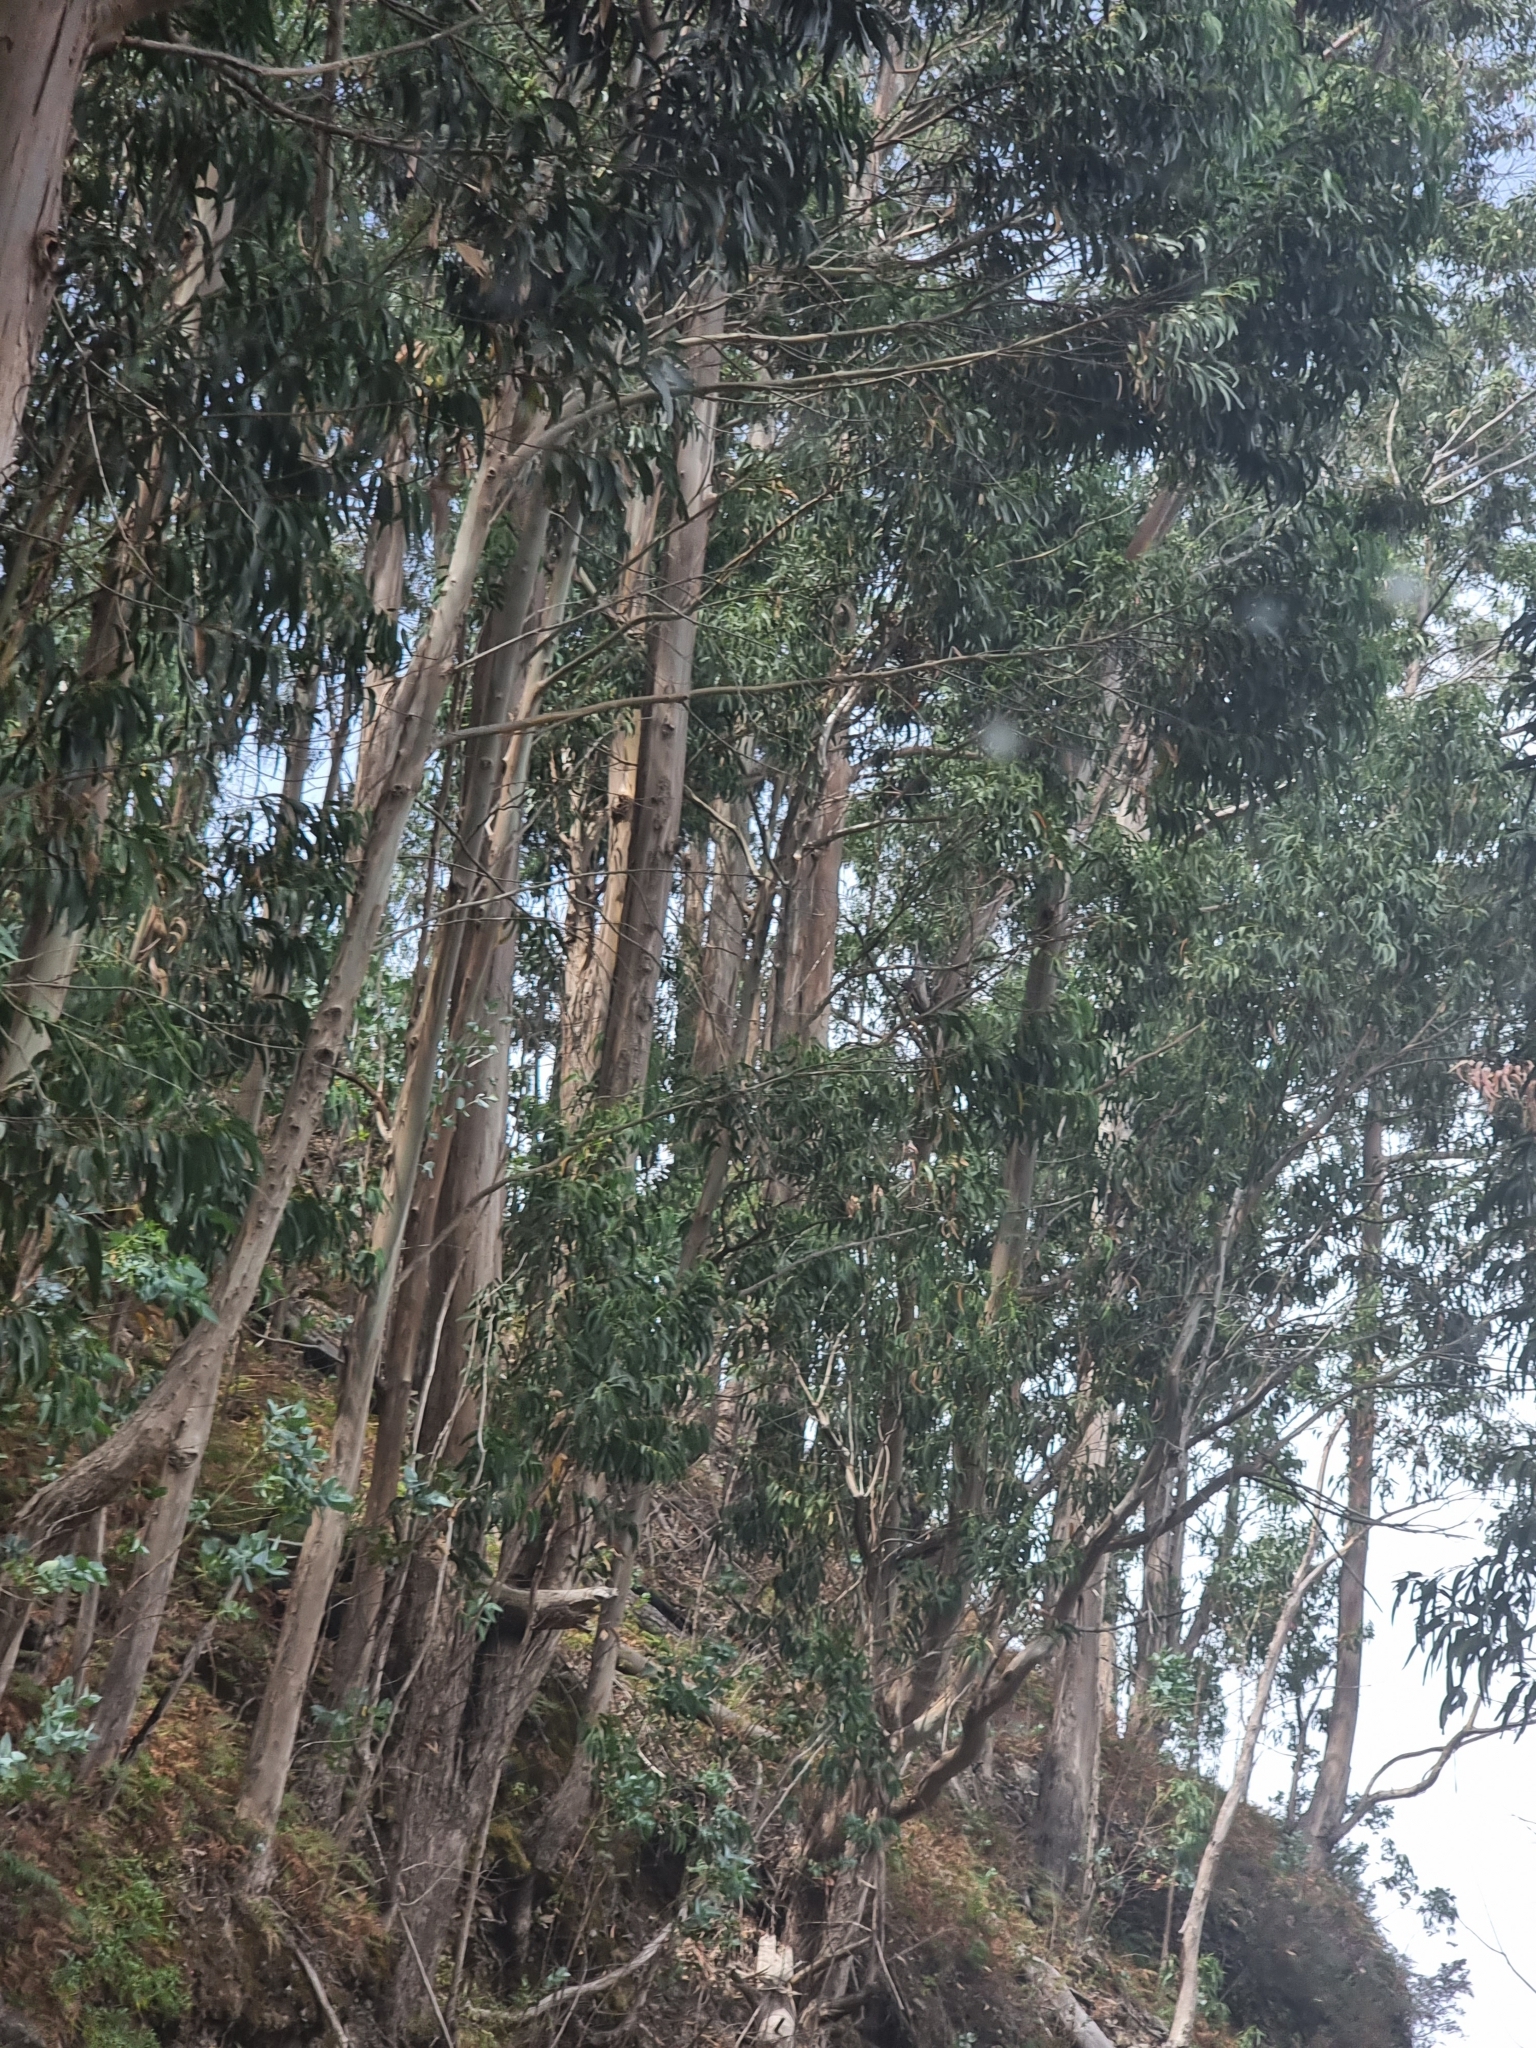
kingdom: Plantae
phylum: Tracheophyta
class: Magnoliopsida
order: Myrtales
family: Myrtaceae
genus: Eucalyptus
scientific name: Eucalyptus globulus
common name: Southern blue-gum
